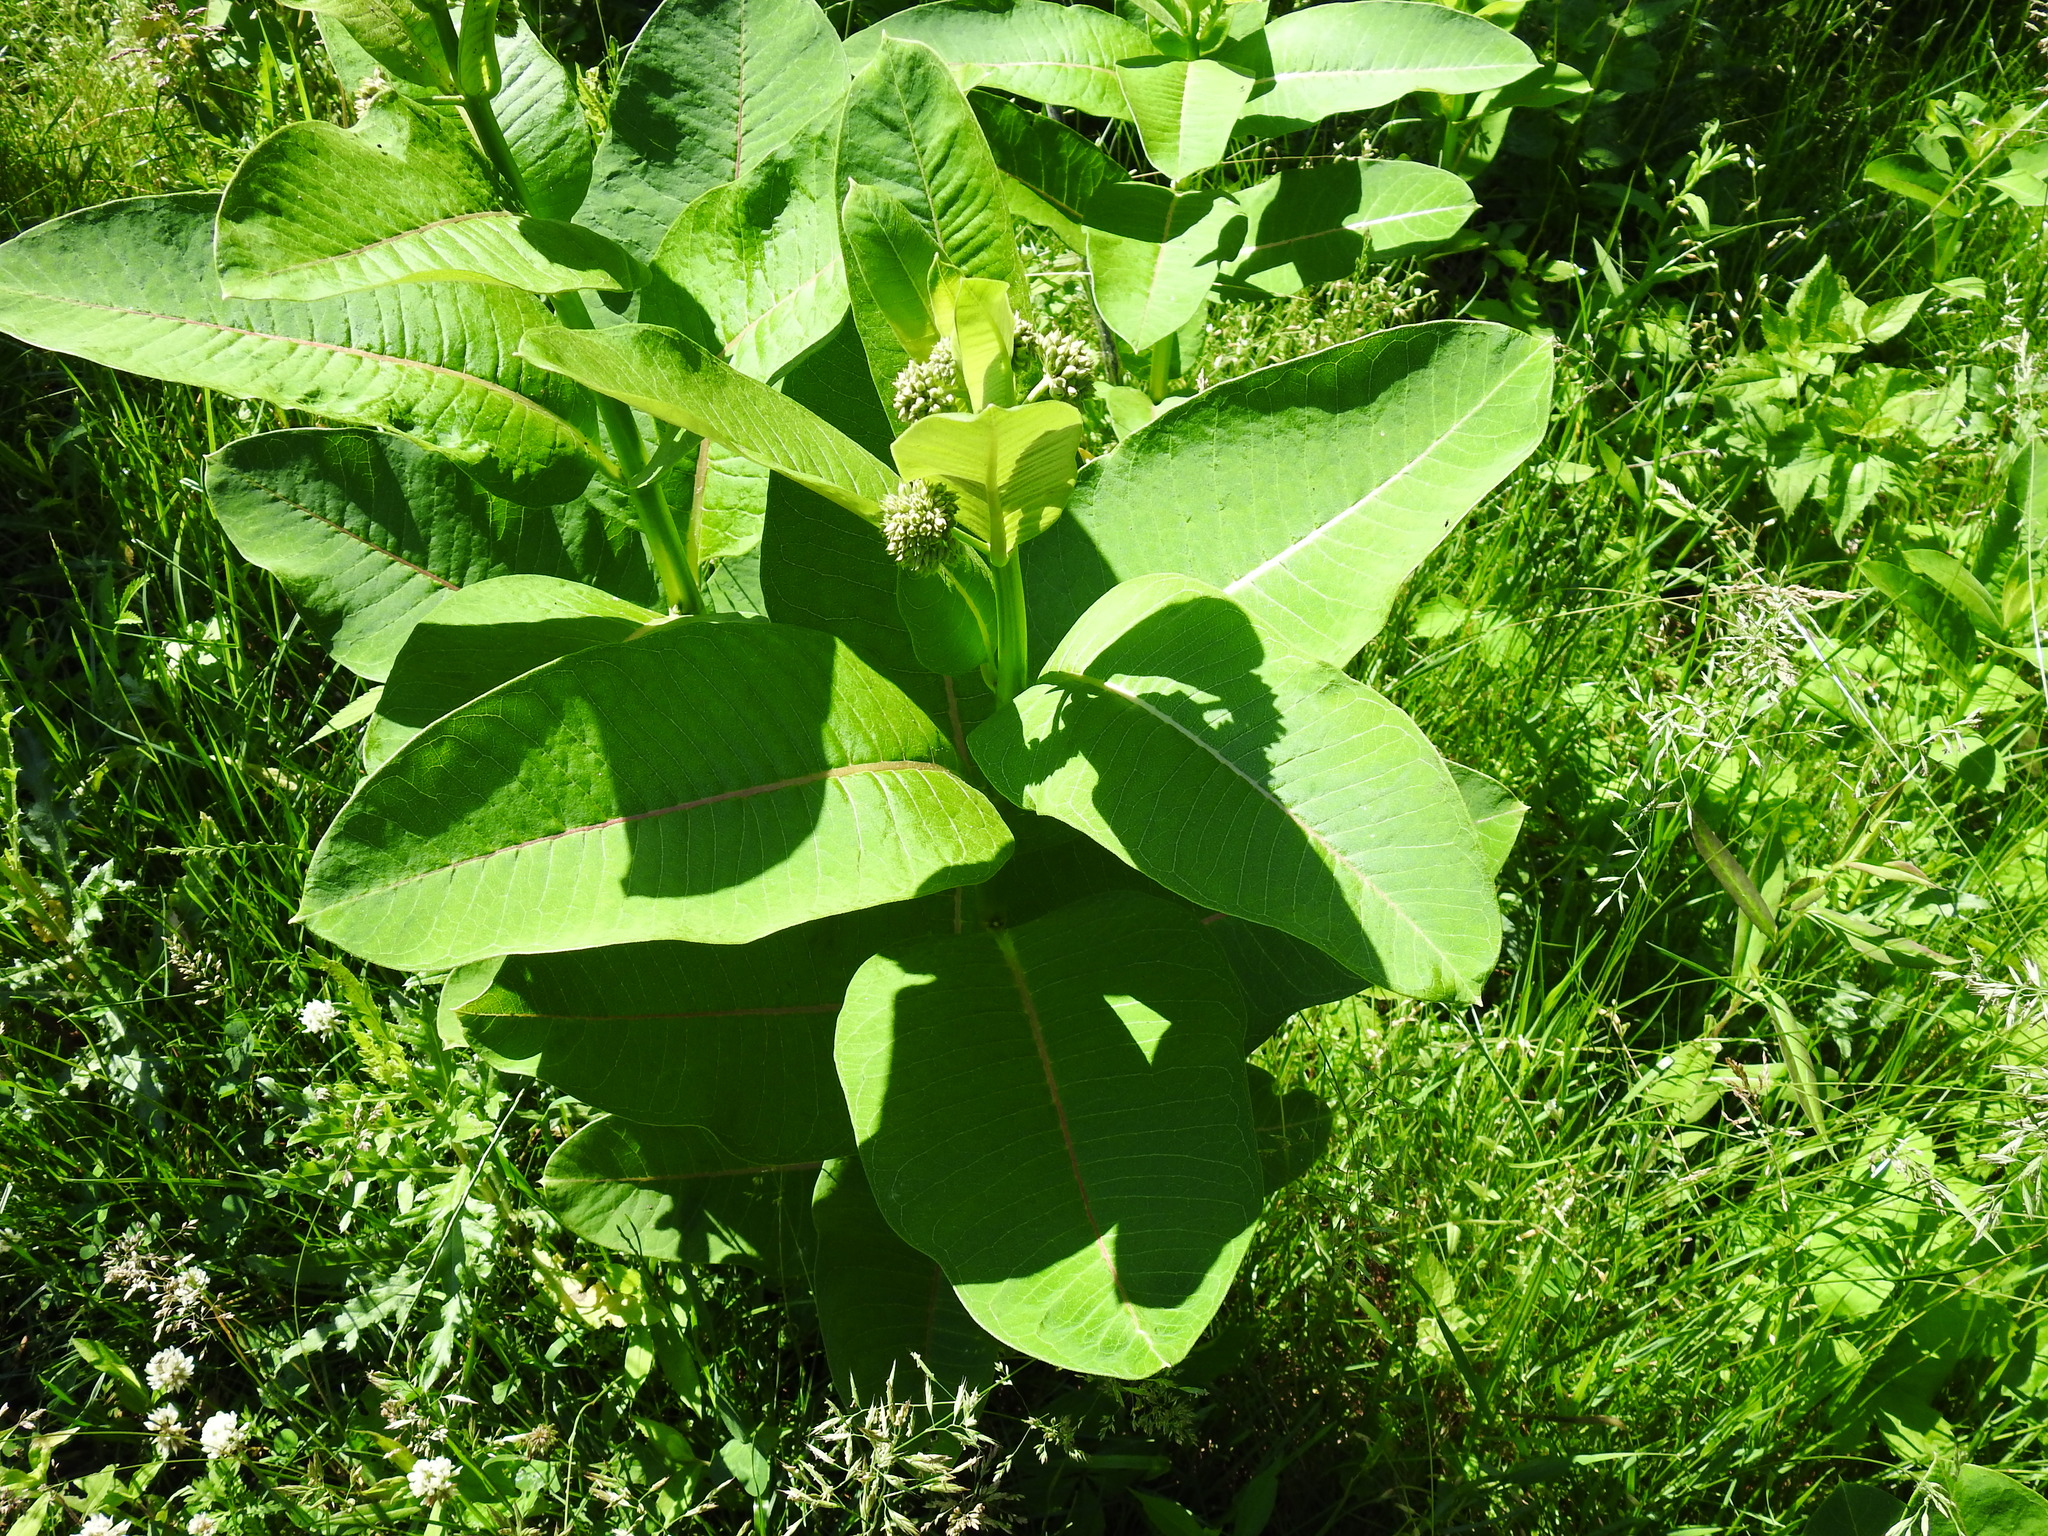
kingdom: Plantae
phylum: Tracheophyta
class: Magnoliopsida
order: Gentianales
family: Apocynaceae
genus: Asclepias
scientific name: Asclepias syriaca
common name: Common milkweed
